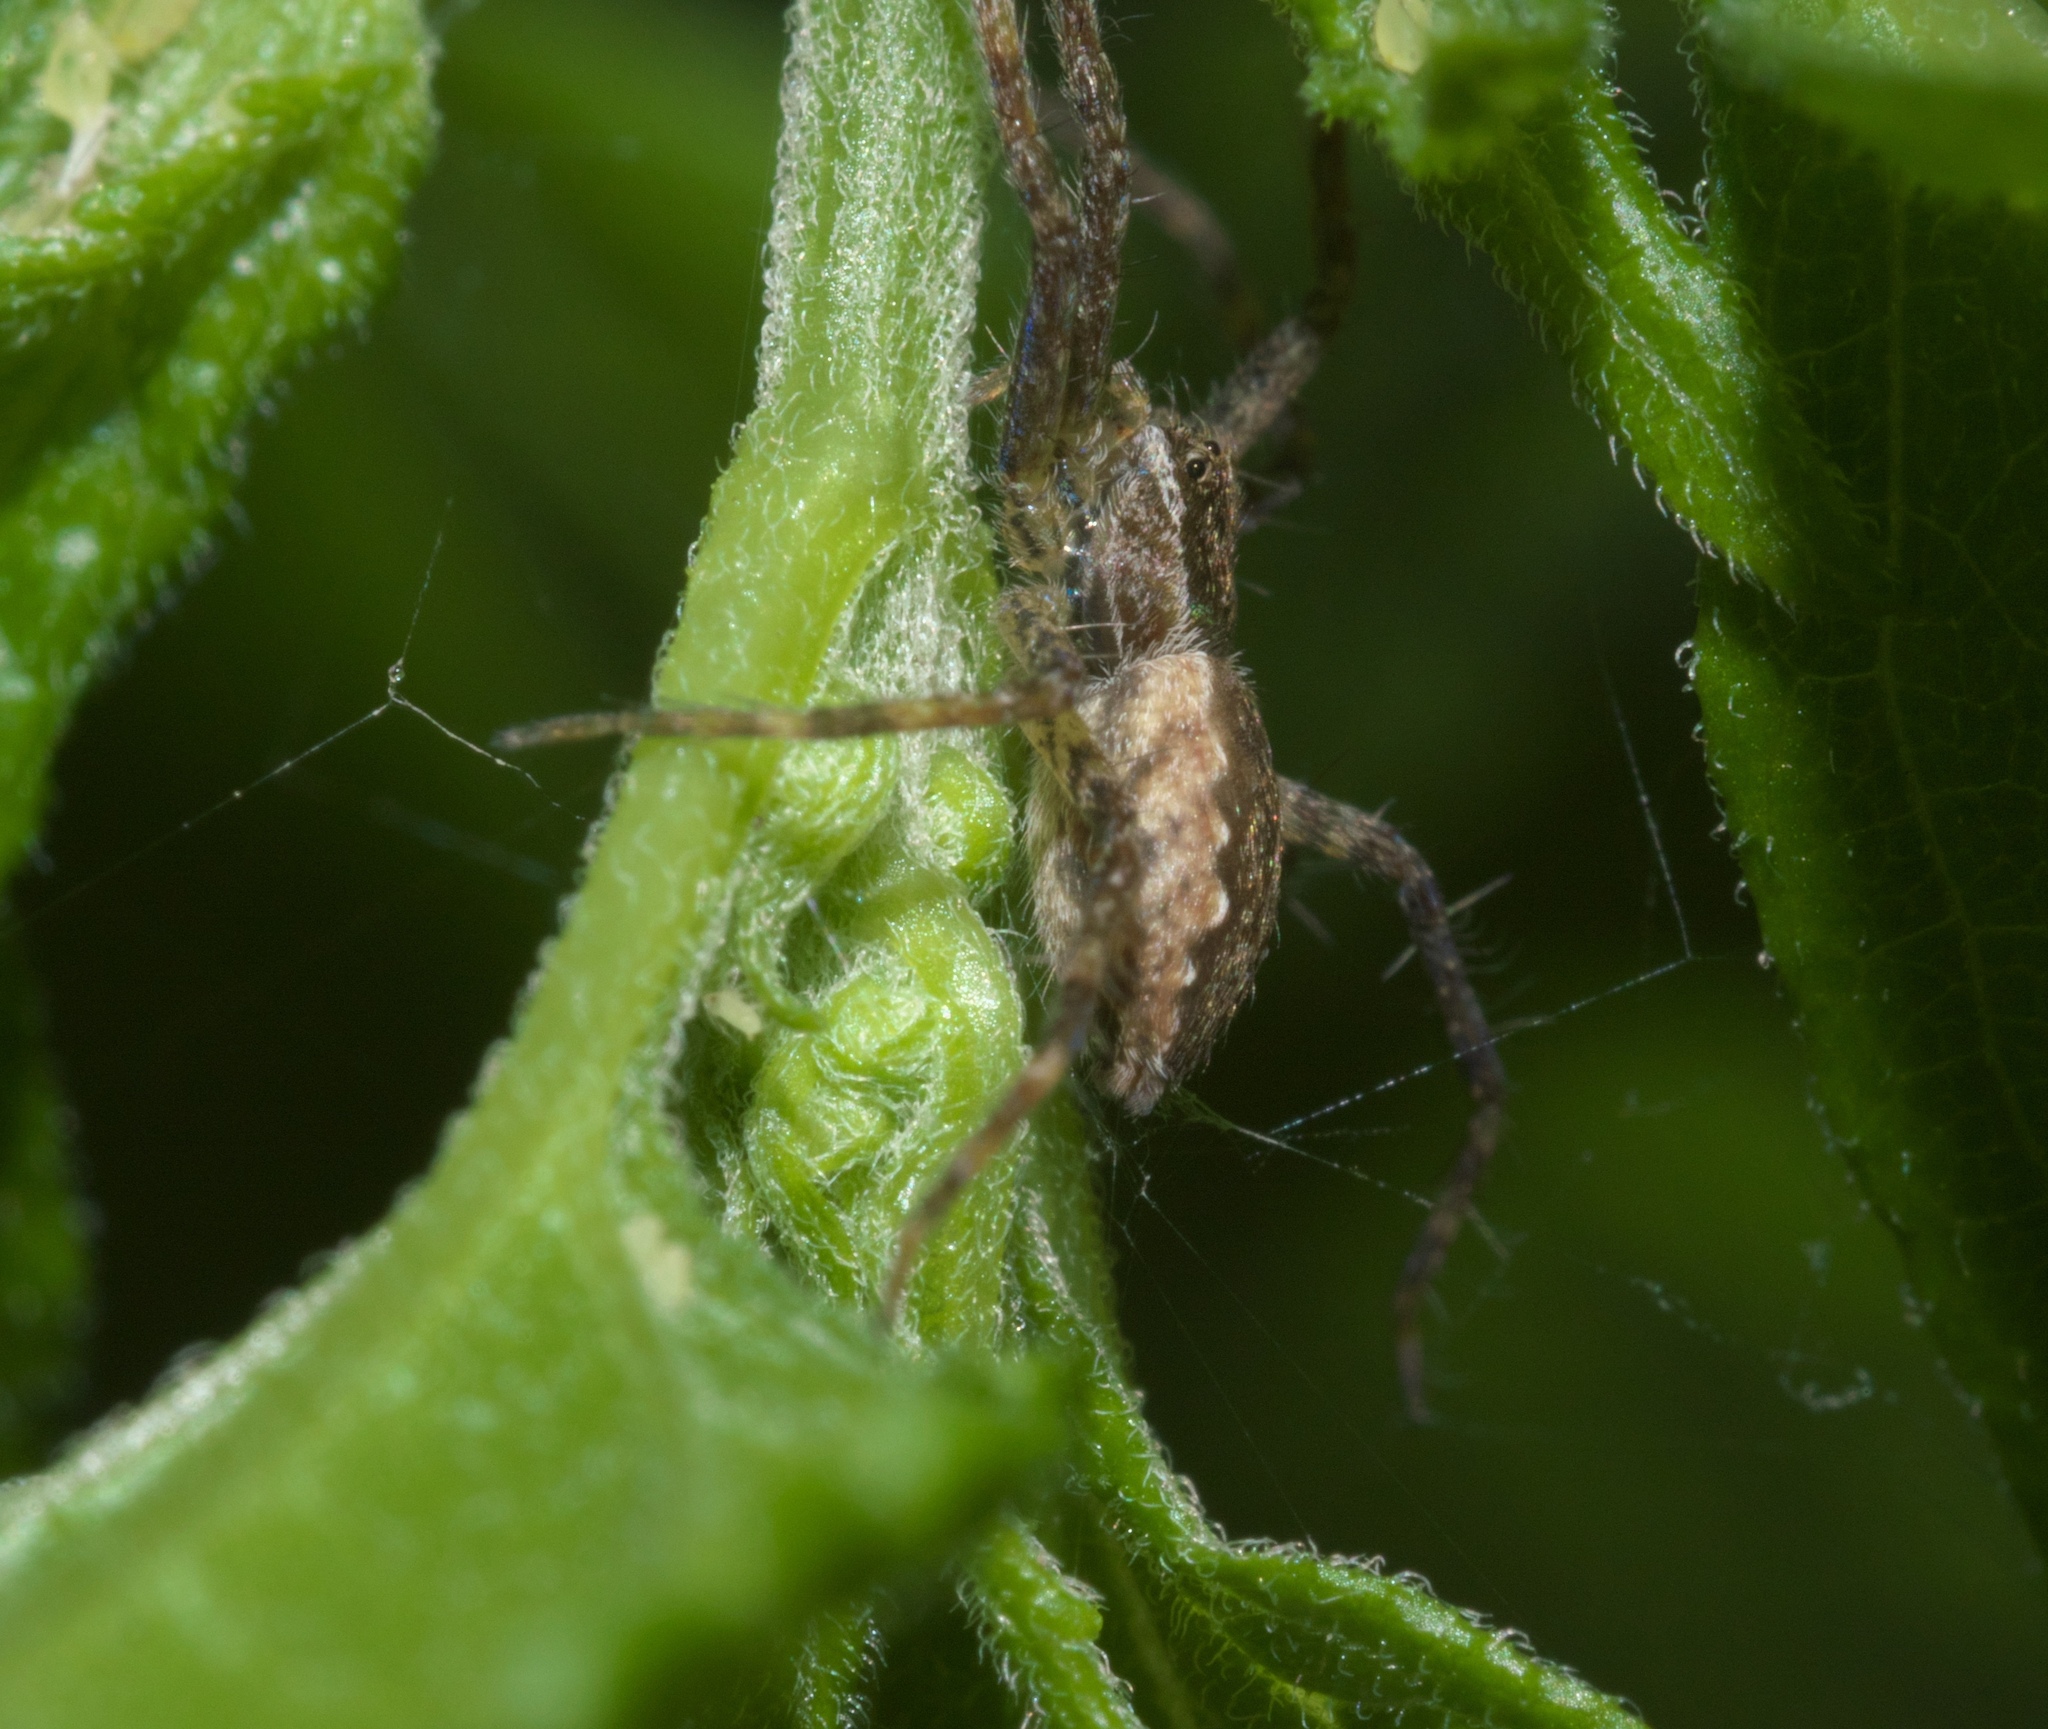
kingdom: Animalia
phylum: Arthropoda
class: Arachnida
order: Araneae
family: Pisauridae
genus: Pisaurina
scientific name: Pisaurina mira
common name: American nursery web spider
